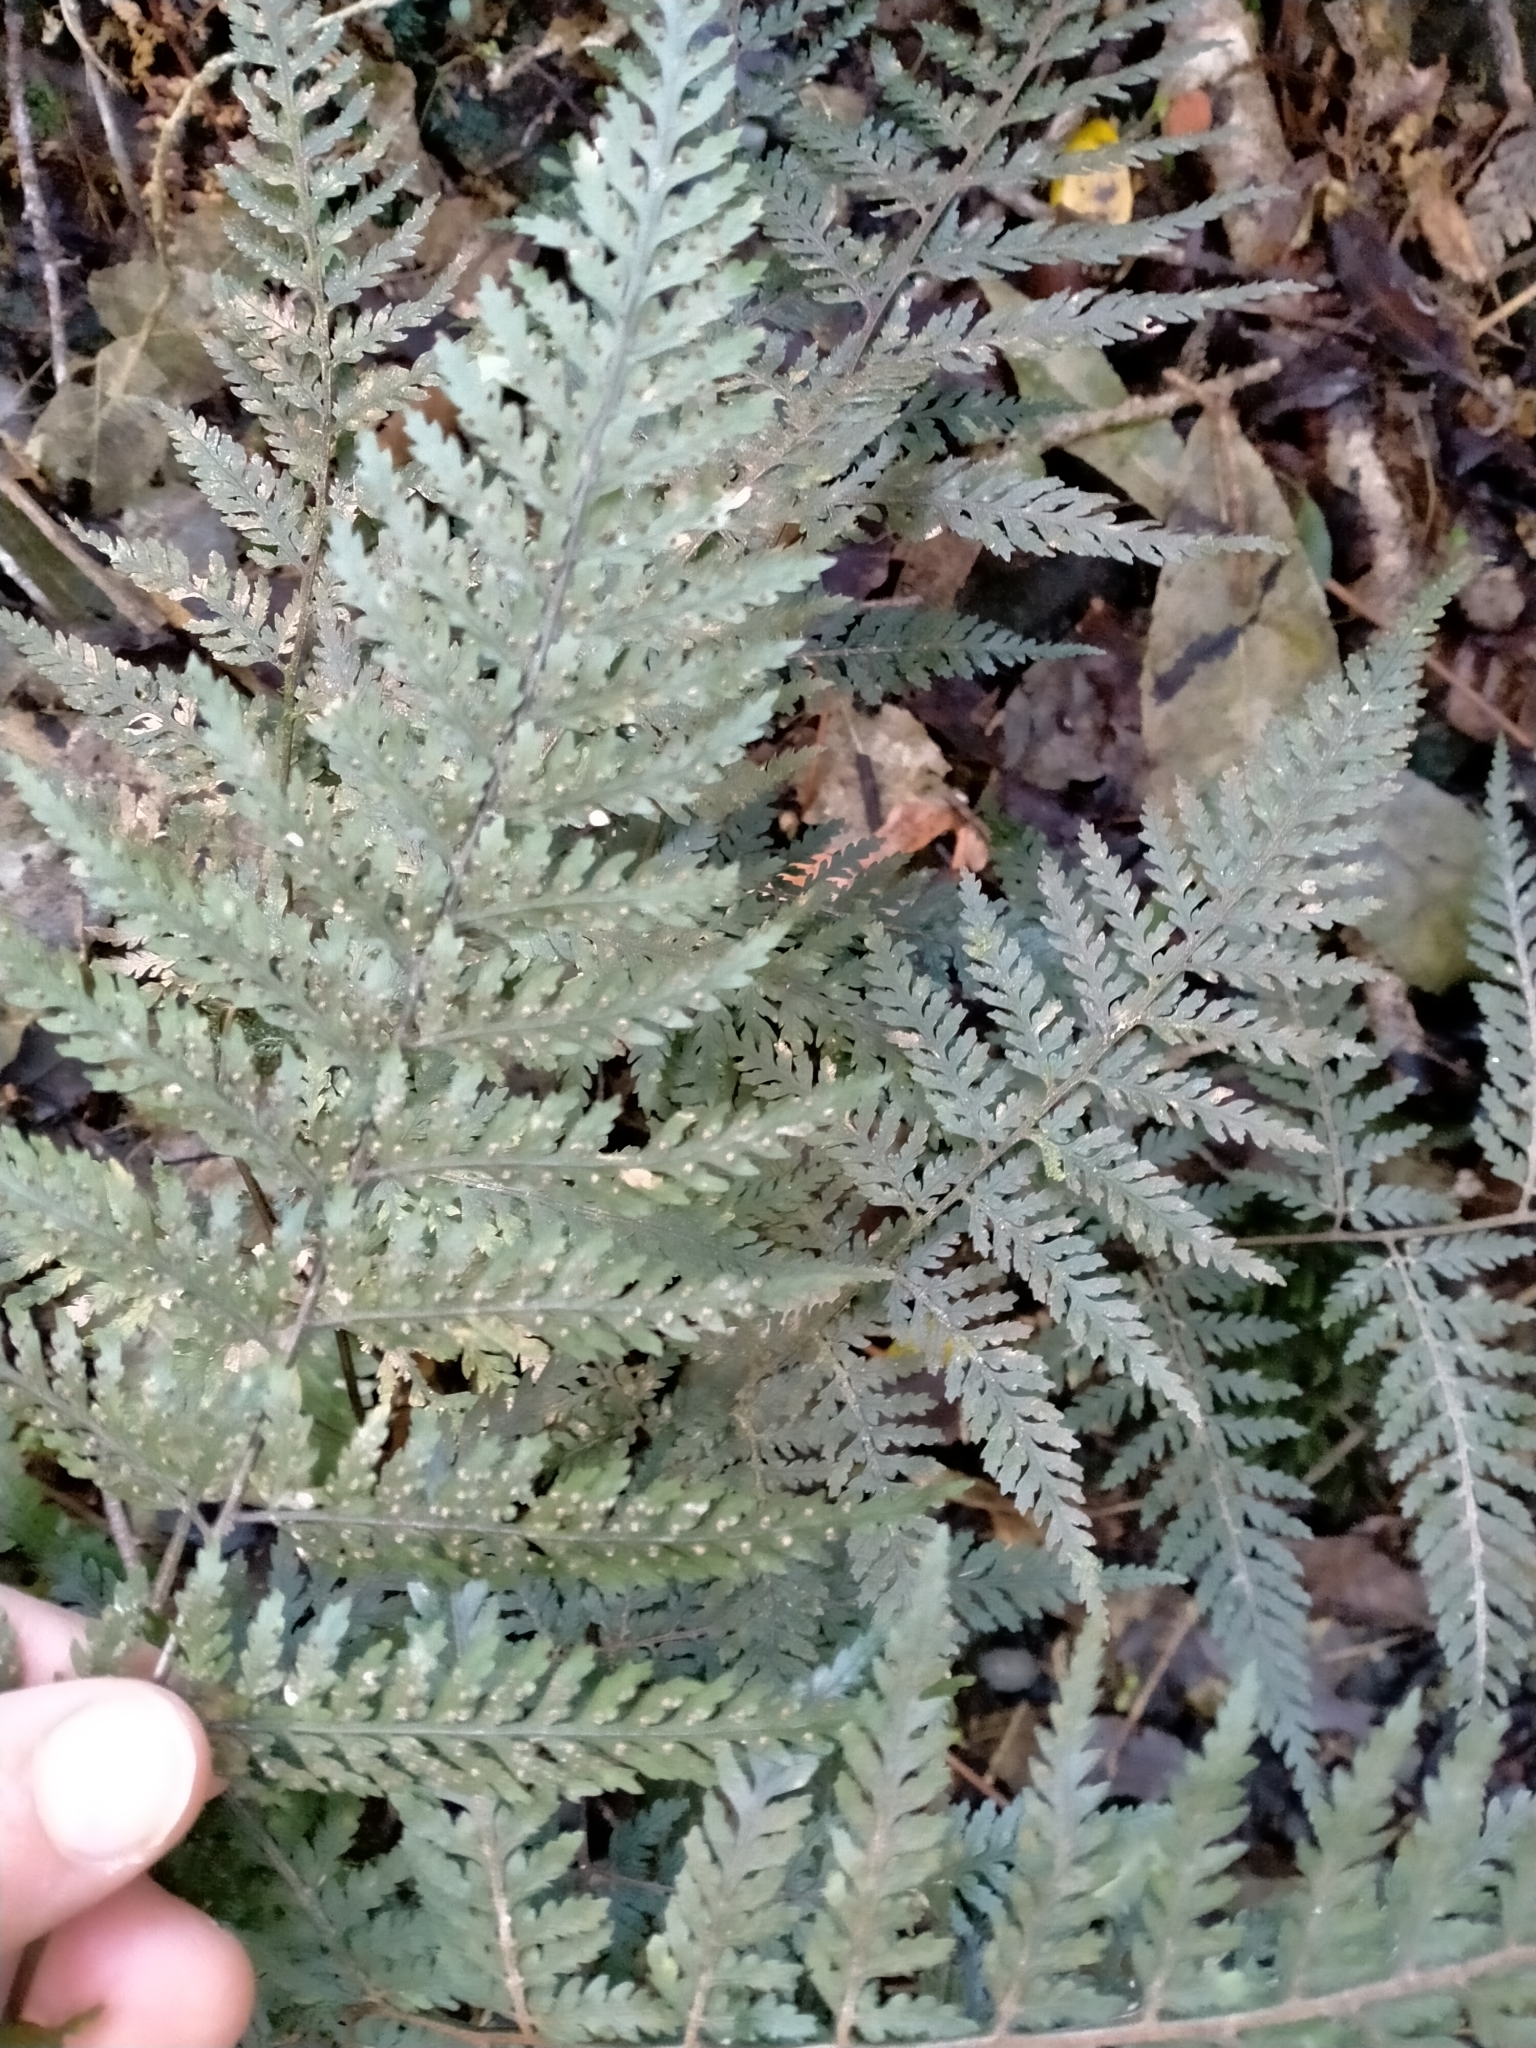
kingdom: Plantae
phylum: Tracheophyta
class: Polypodiopsida
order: Polypodiales
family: Dryopteridaceae
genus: Parapolystichum
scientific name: Parapolystichum glabellum
